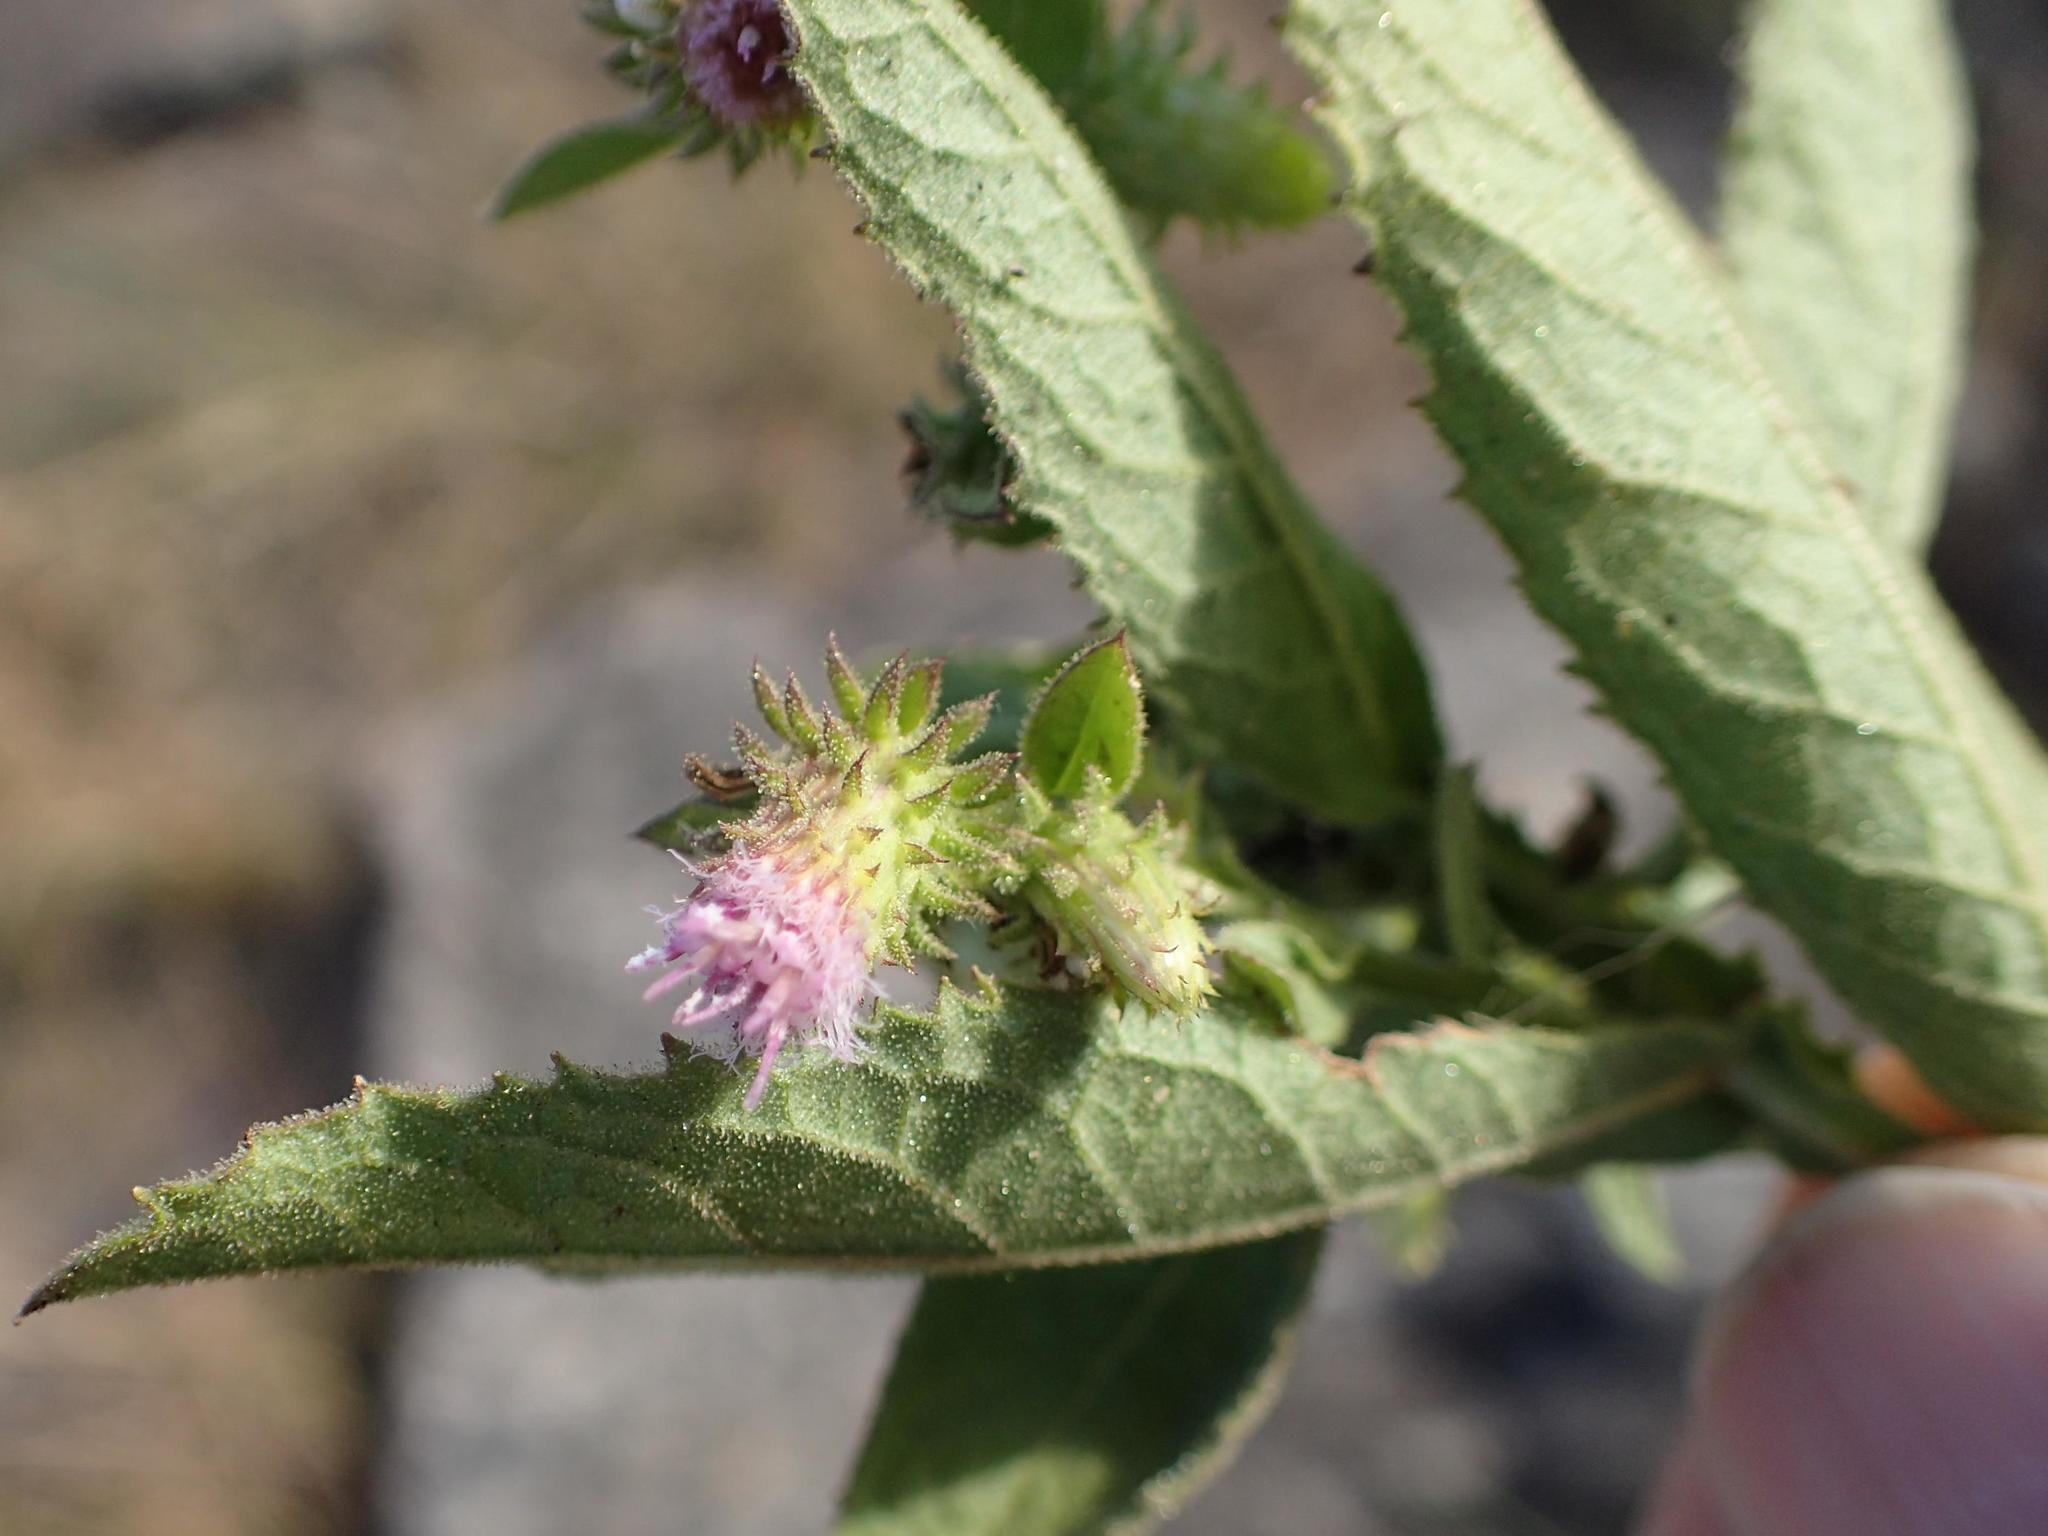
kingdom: Plantae
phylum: Tracheophyta
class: Magnoliopsida
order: Asterales
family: Asteraceae
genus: Laggera
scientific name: Laggera crispata
